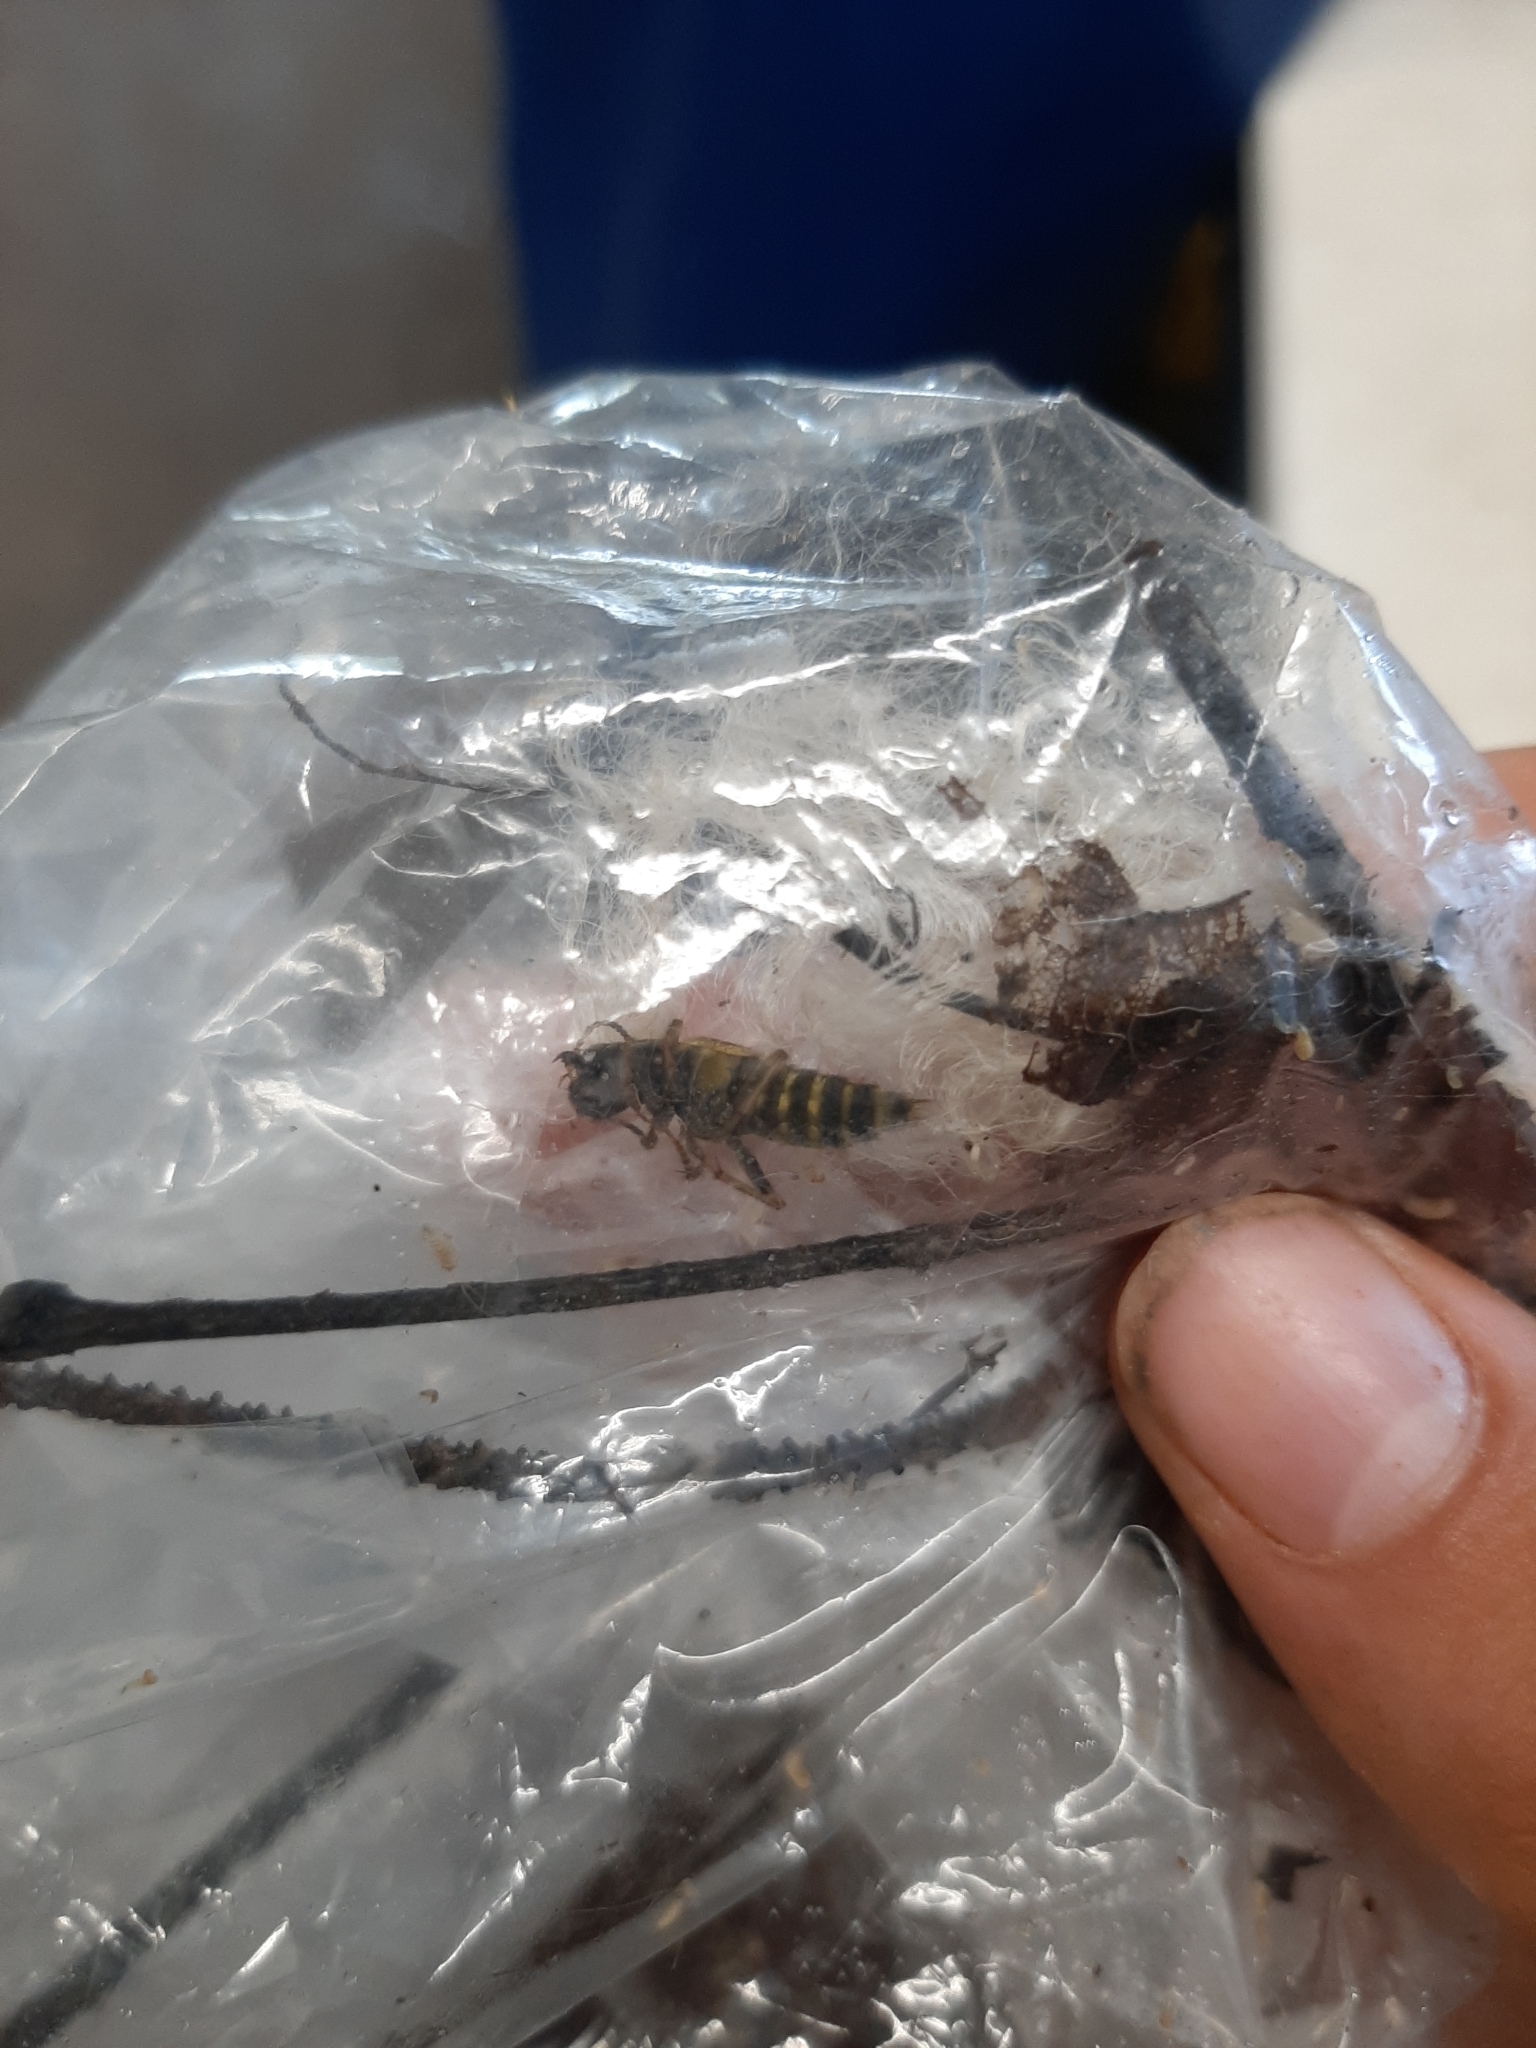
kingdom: Animalia
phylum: Arthropoda
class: Insecta
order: Coleoptera
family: Staphylinidae
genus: Ontholestes
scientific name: Ontholestes cingulatus
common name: Gold-and-brown rove beetle
